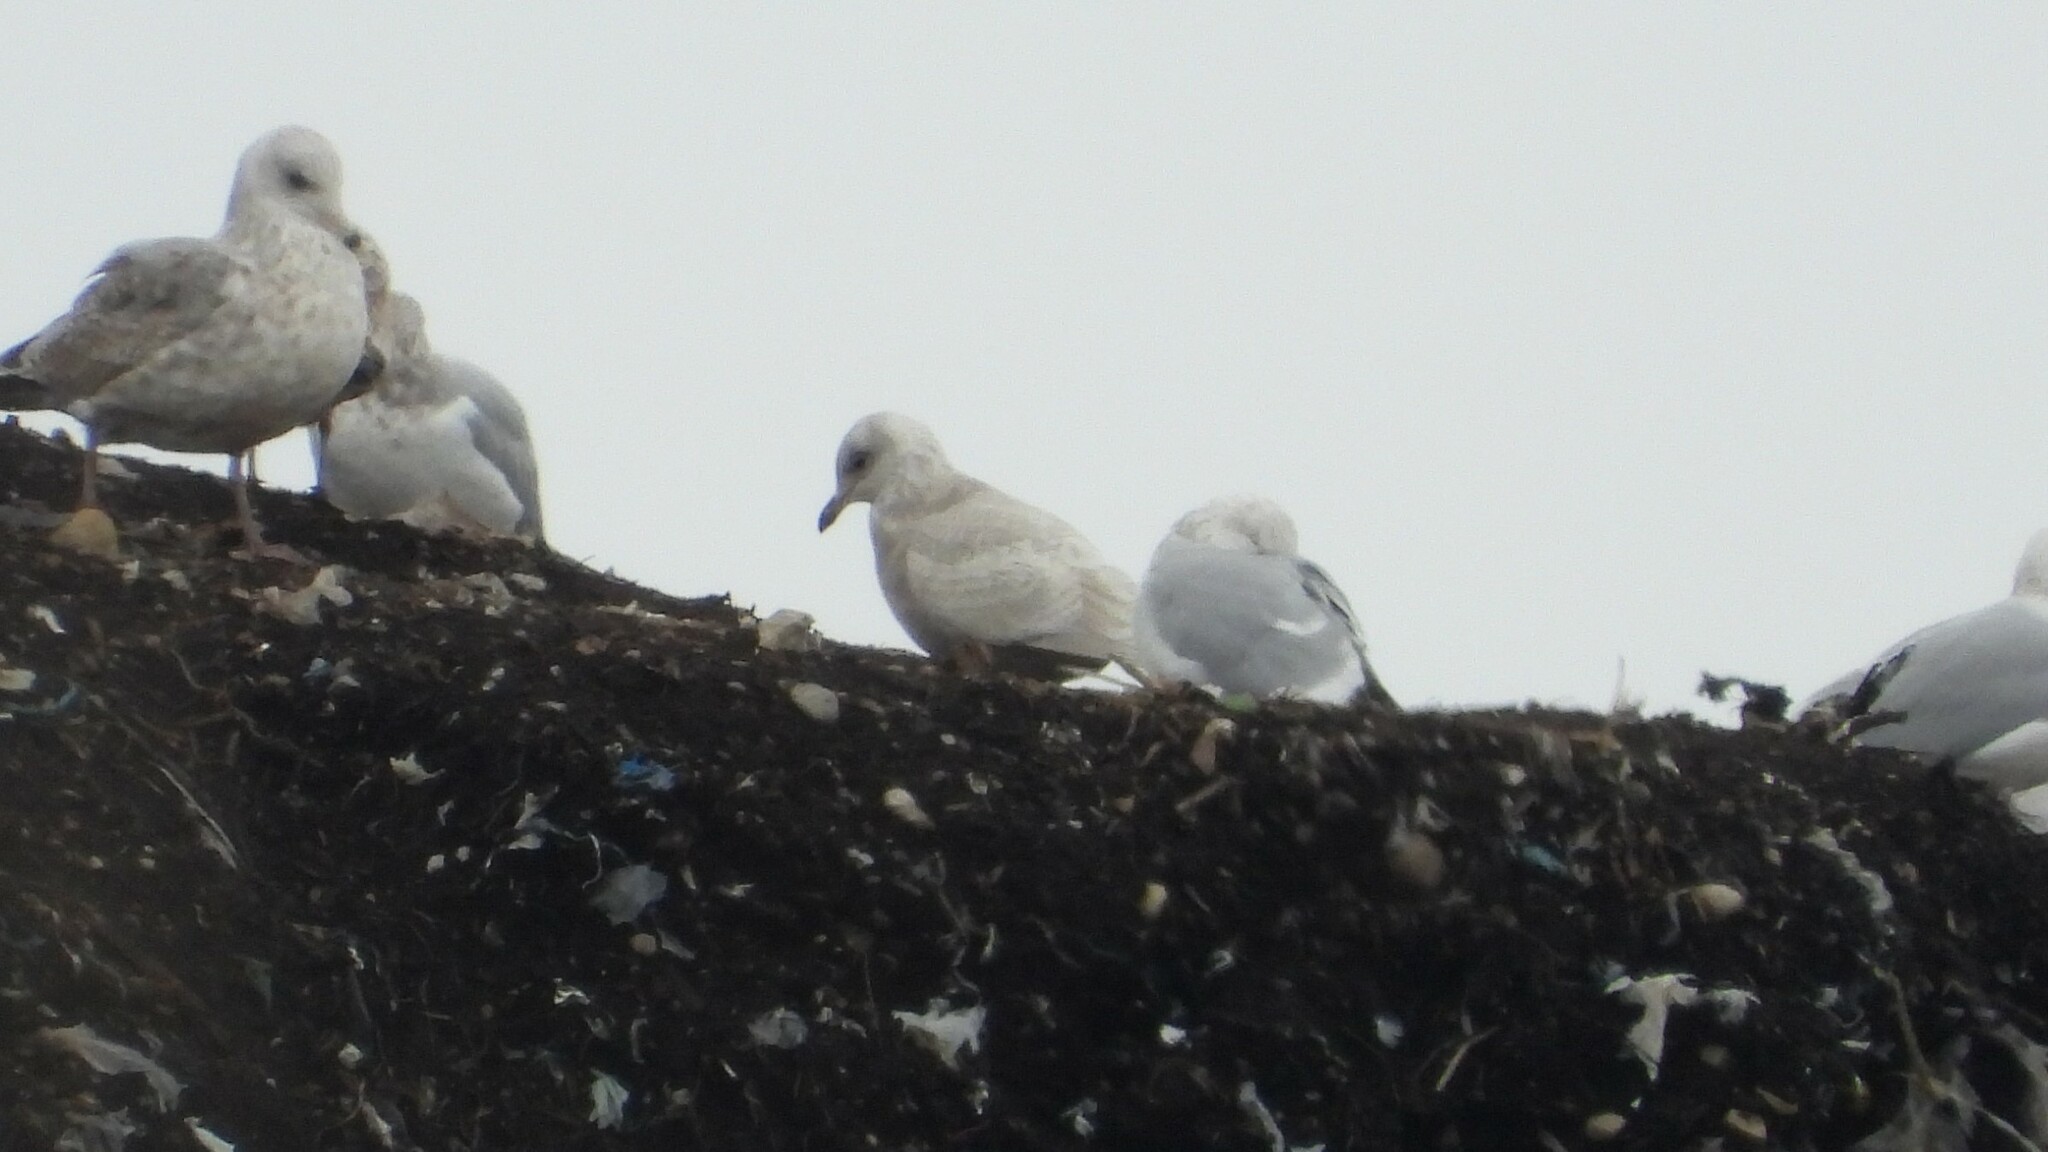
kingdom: Animalia
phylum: Chordata
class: Aves
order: Charadriiformes
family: Laridae
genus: Larus
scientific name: Larus glaucoides
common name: Iceland gull
